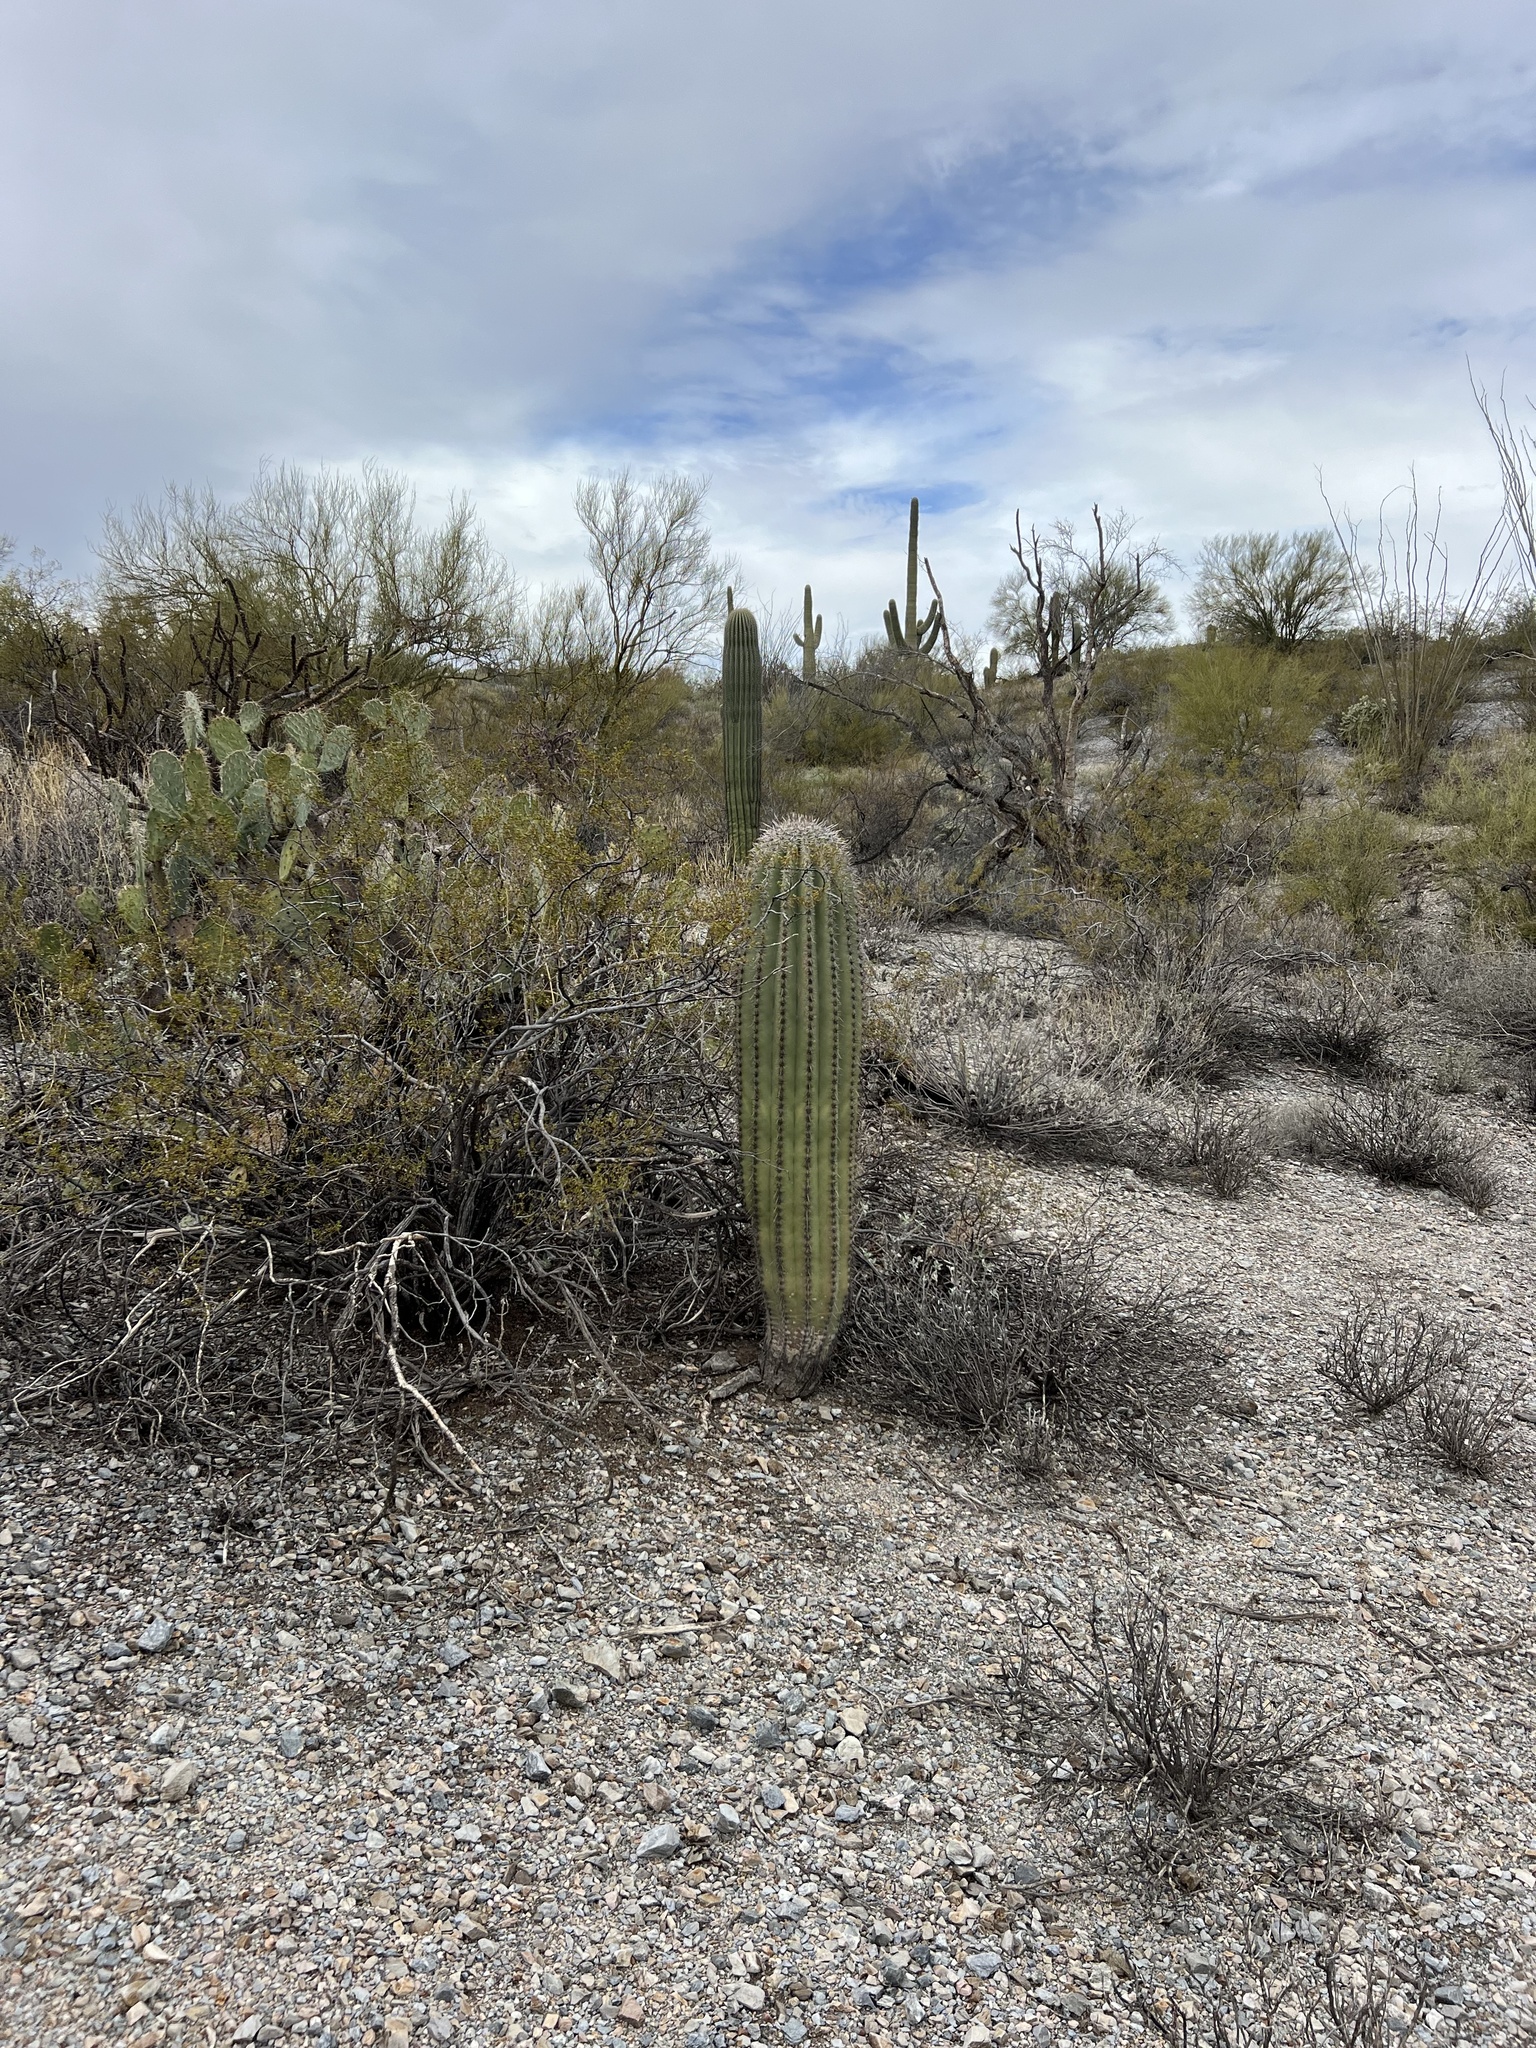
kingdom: Plantae
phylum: Tracheophyta
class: Magnoliopsida
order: Caryophyllales
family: Cactaceae
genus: Carnegiea
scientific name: Carnegiea gigantea
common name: Saguaro
